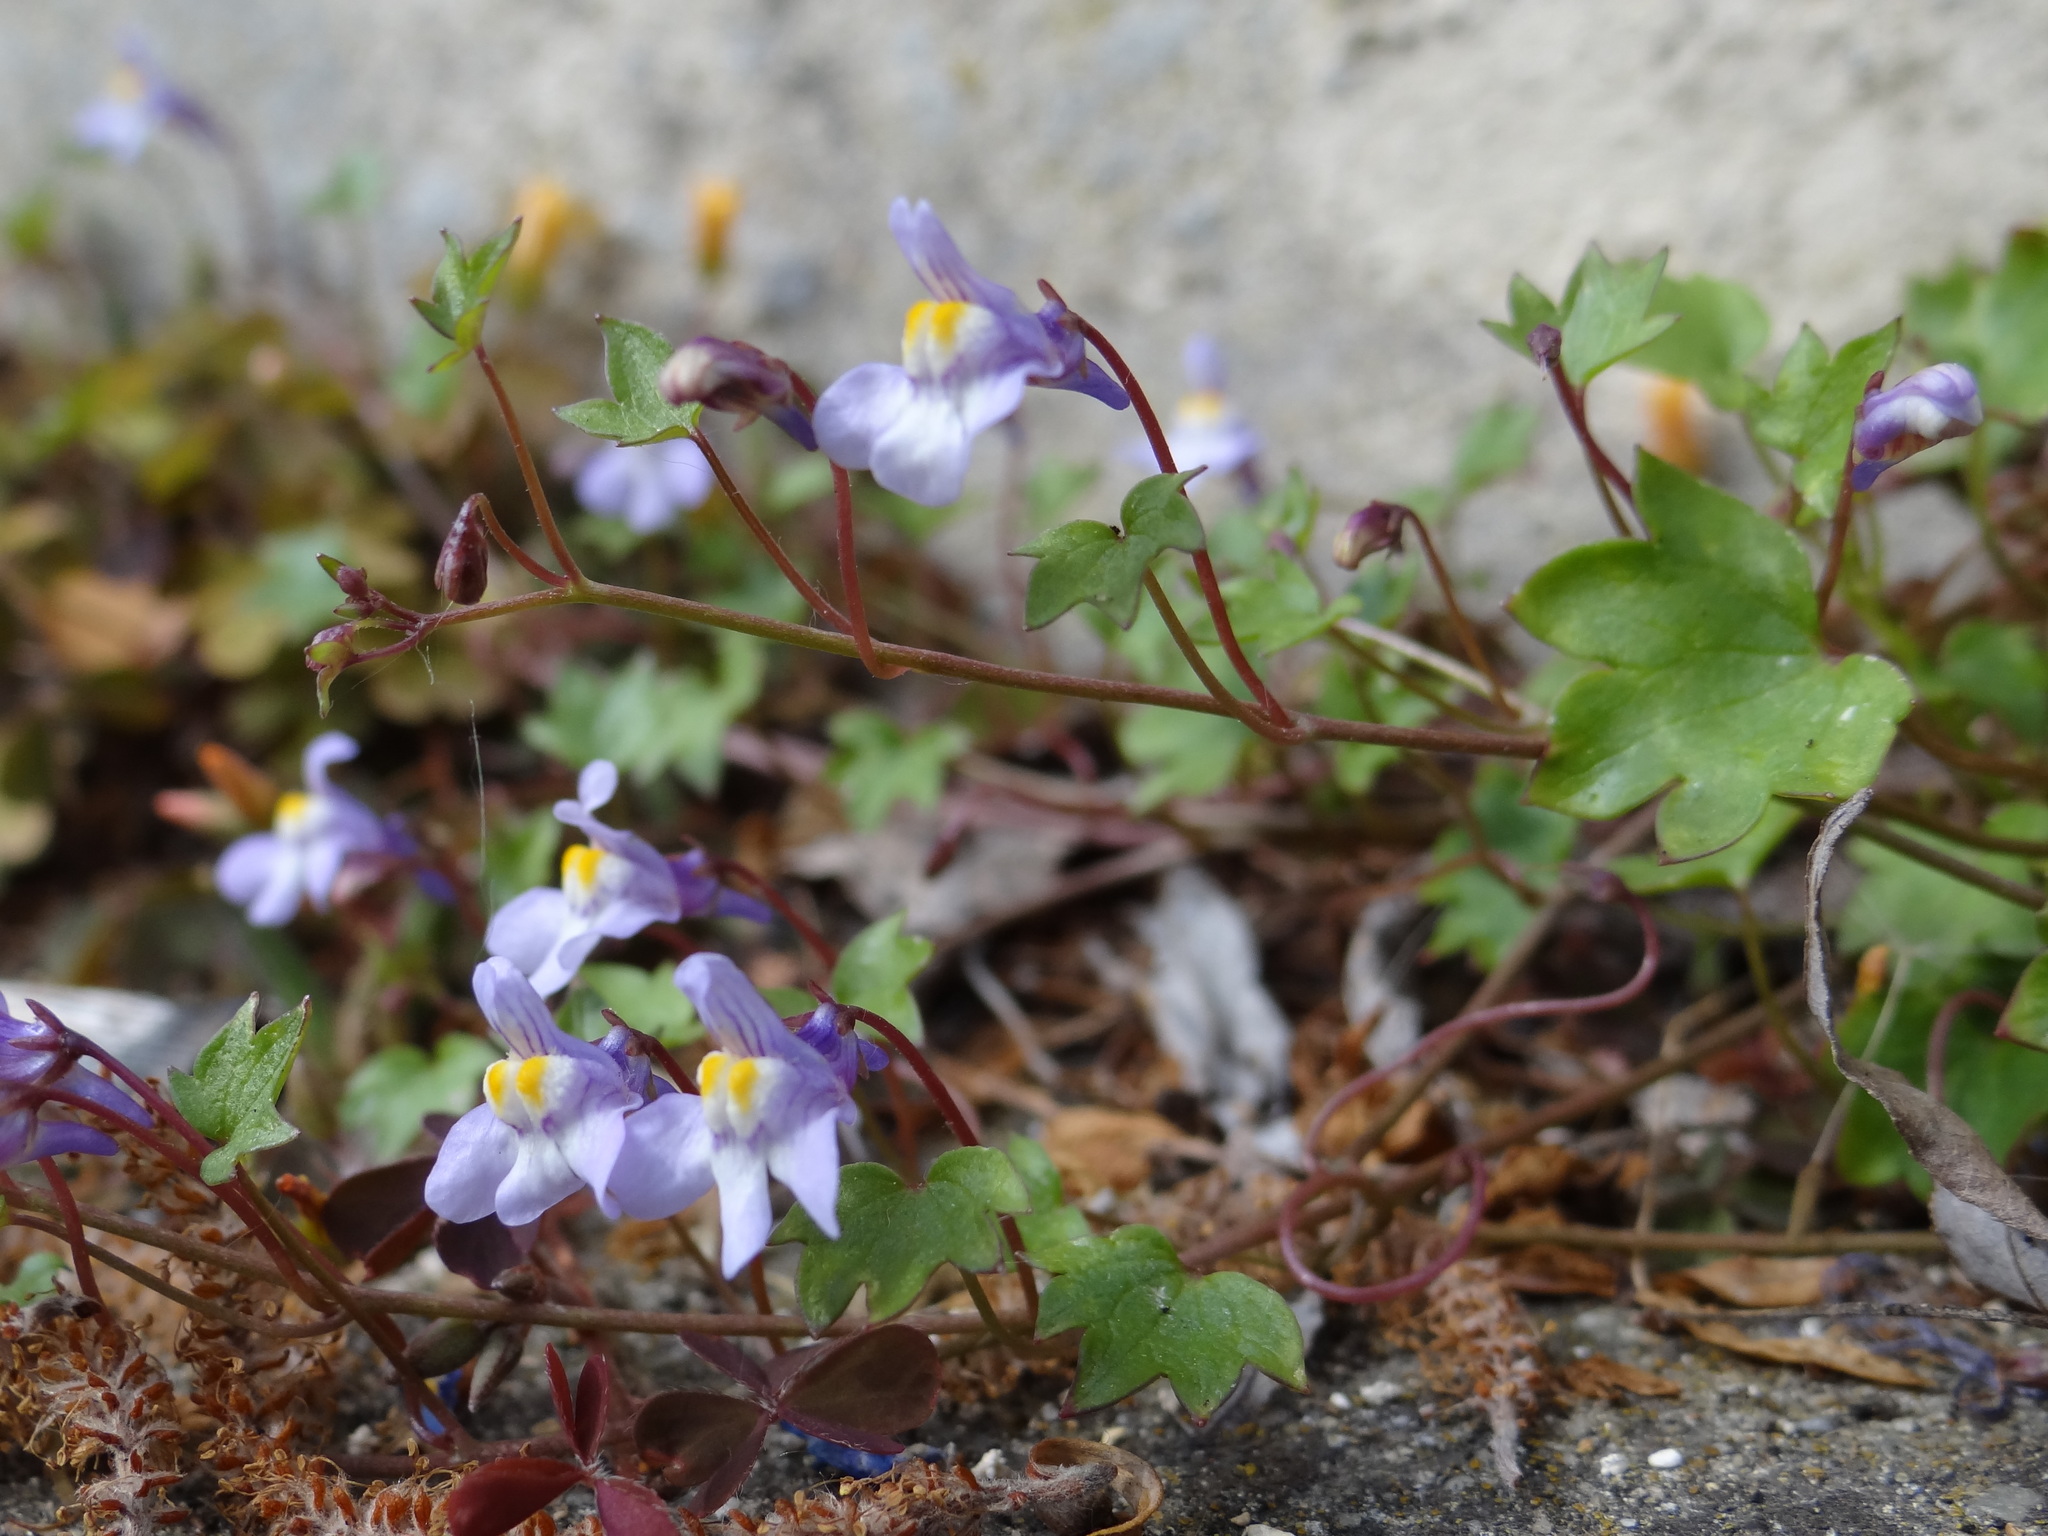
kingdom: Plantae
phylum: Tracheophyta
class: Magnoliopsida
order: Lamiales
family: Plantaginaceae
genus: Cymbalaria
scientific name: Cymbalaria muralis
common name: Ivy-leaved toadflax
